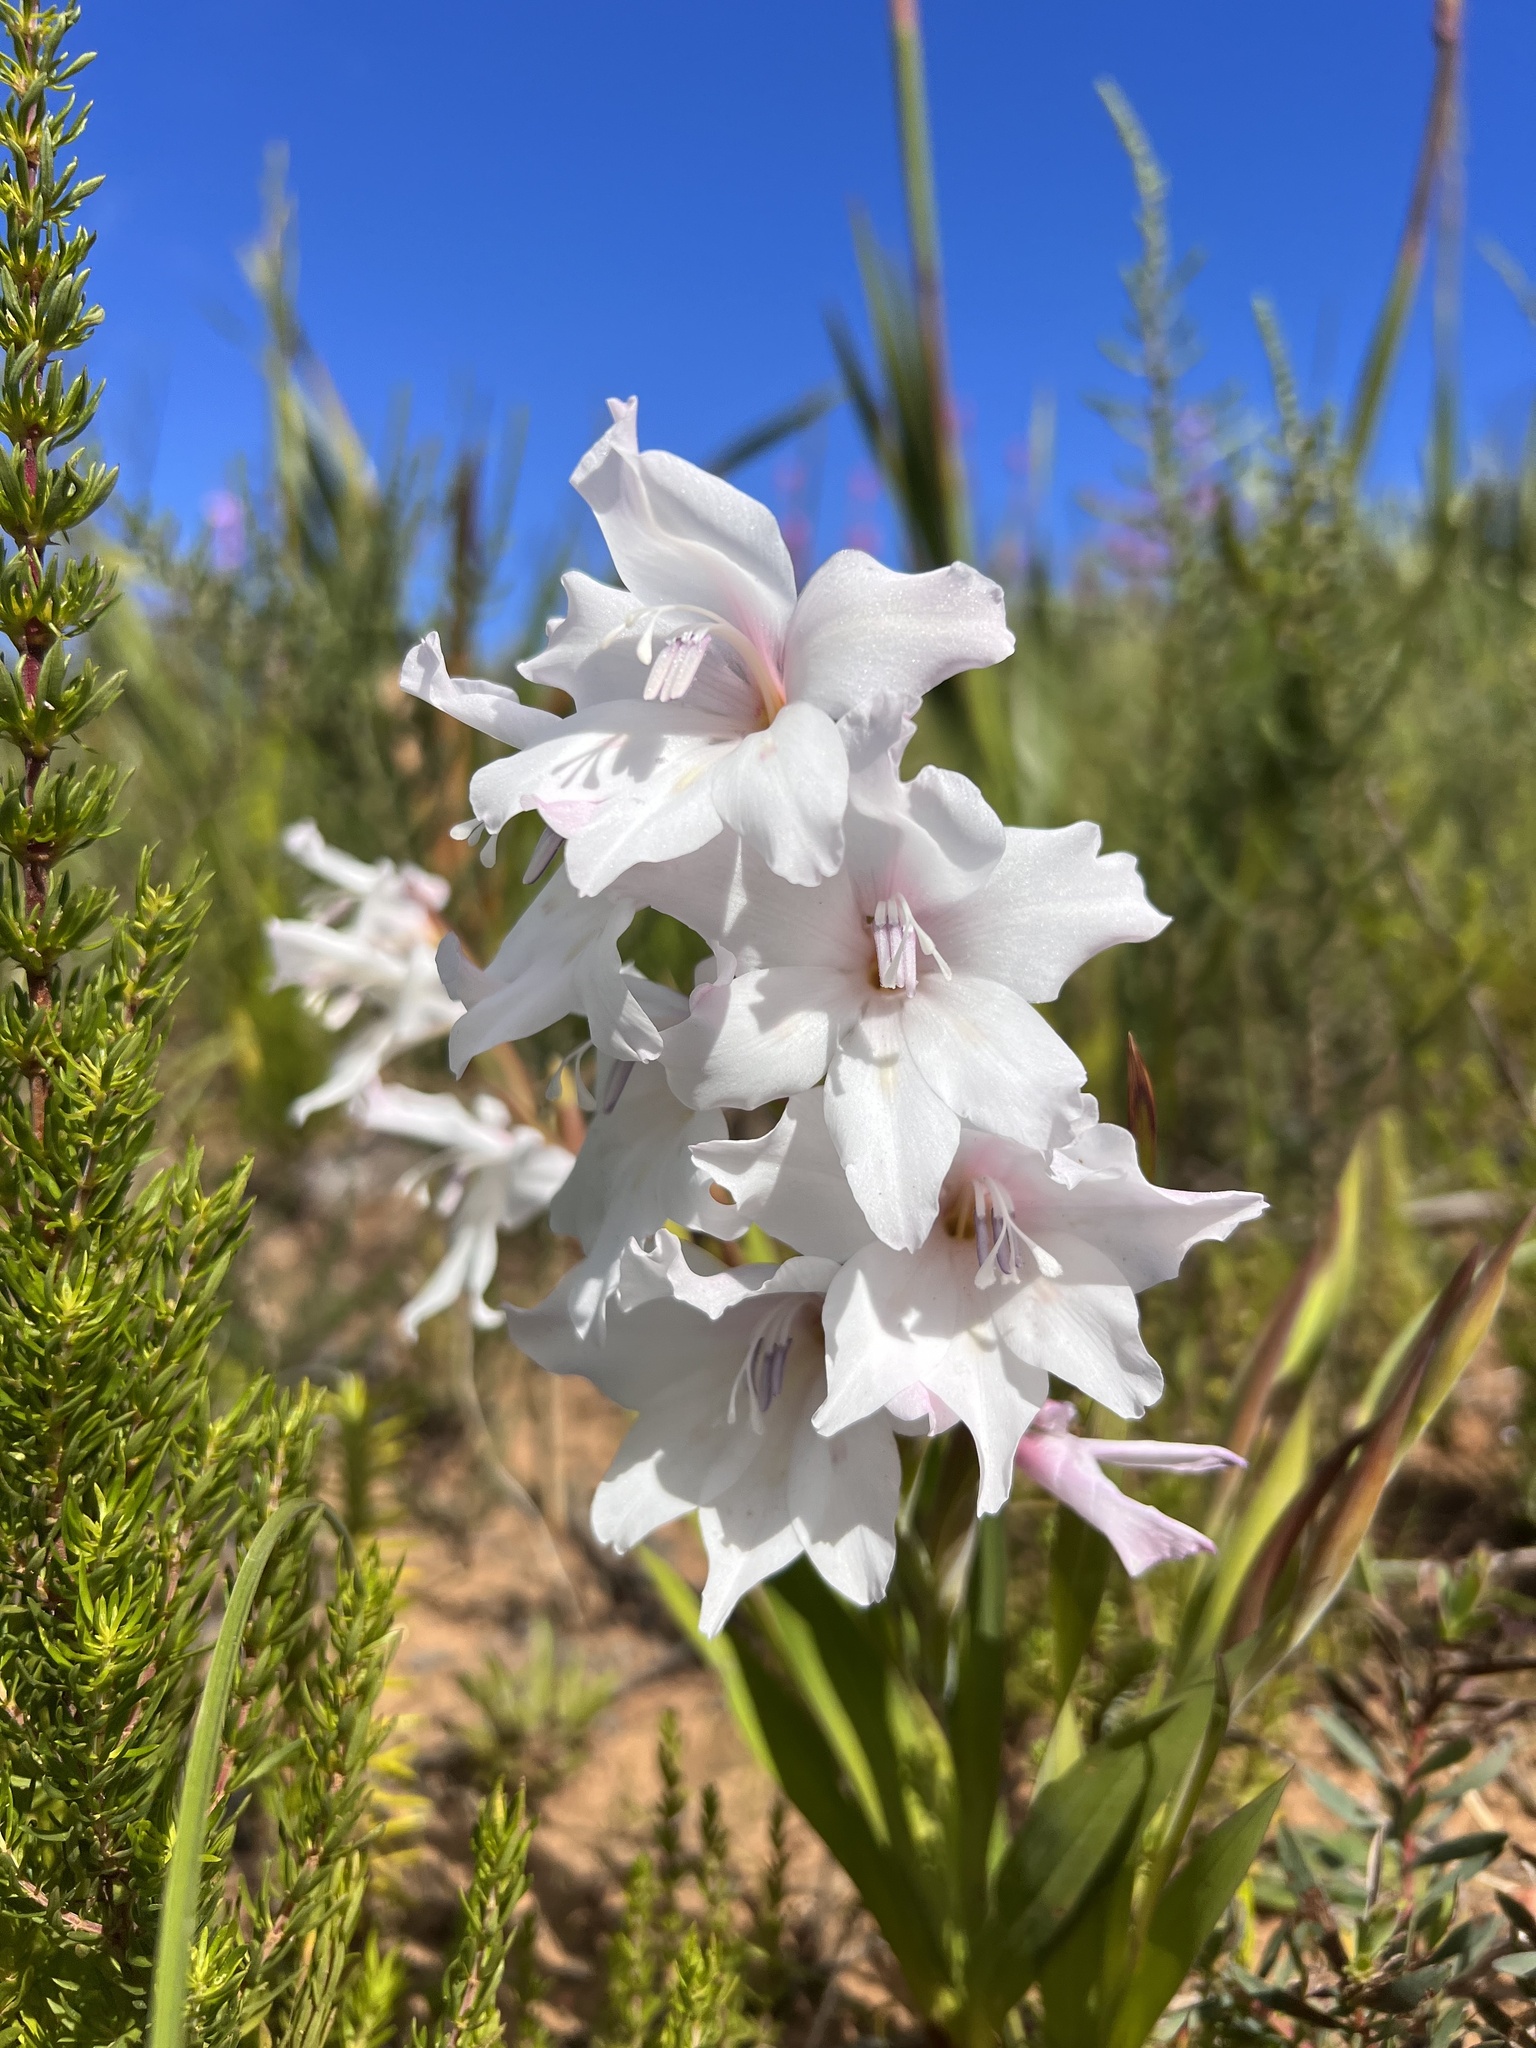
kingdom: Plantae
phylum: Tracheophyta
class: Liliopsida
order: Asparagales
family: Iridaceae
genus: Gladiolus
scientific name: Gladiolus carneus
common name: Painted-lady
